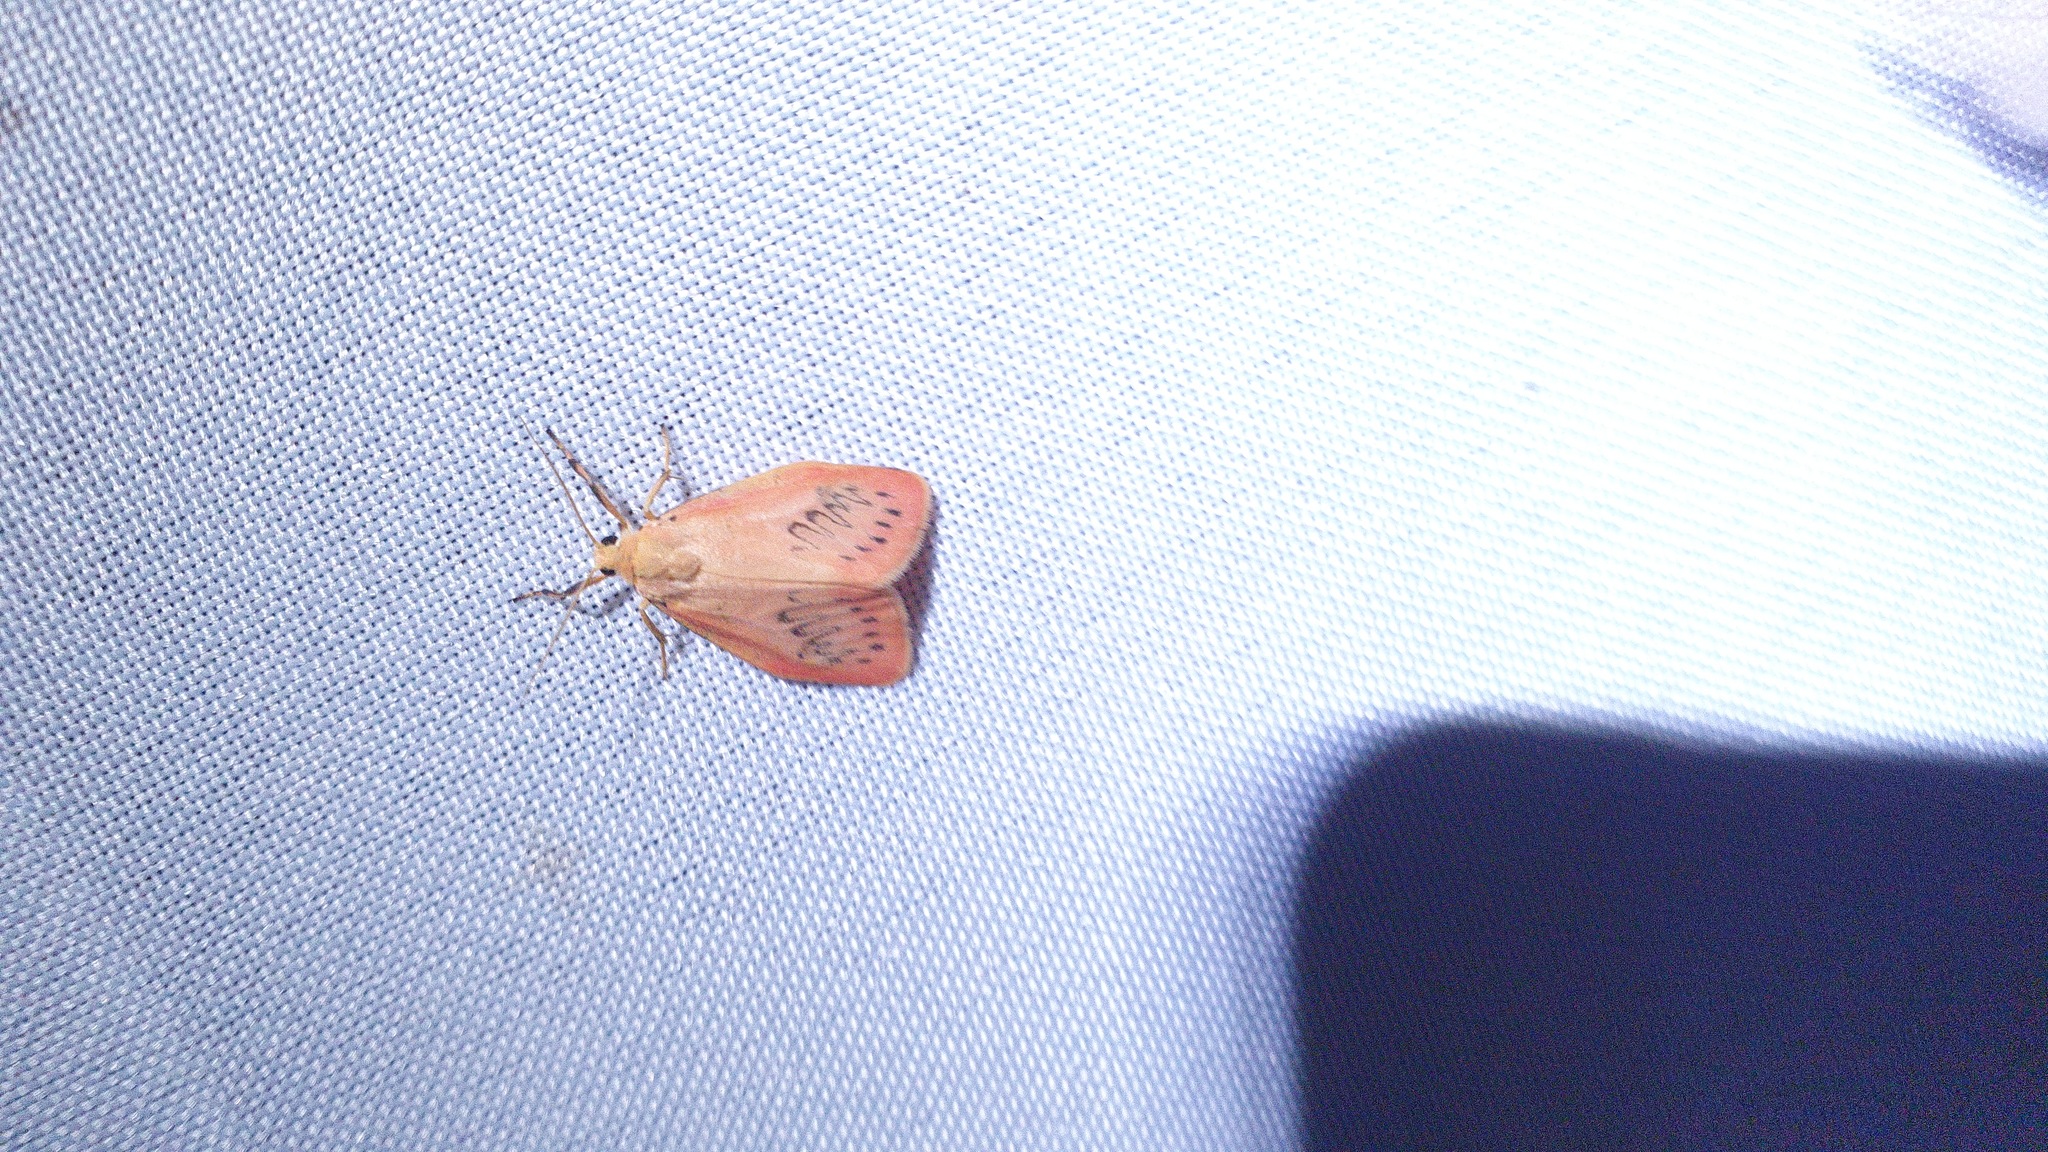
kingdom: Animalia
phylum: Arthropoda
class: Insecta
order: Lepidoptera
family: Erebidae
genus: Miltochrista
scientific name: Miltochrista miniata
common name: Rosy footman
